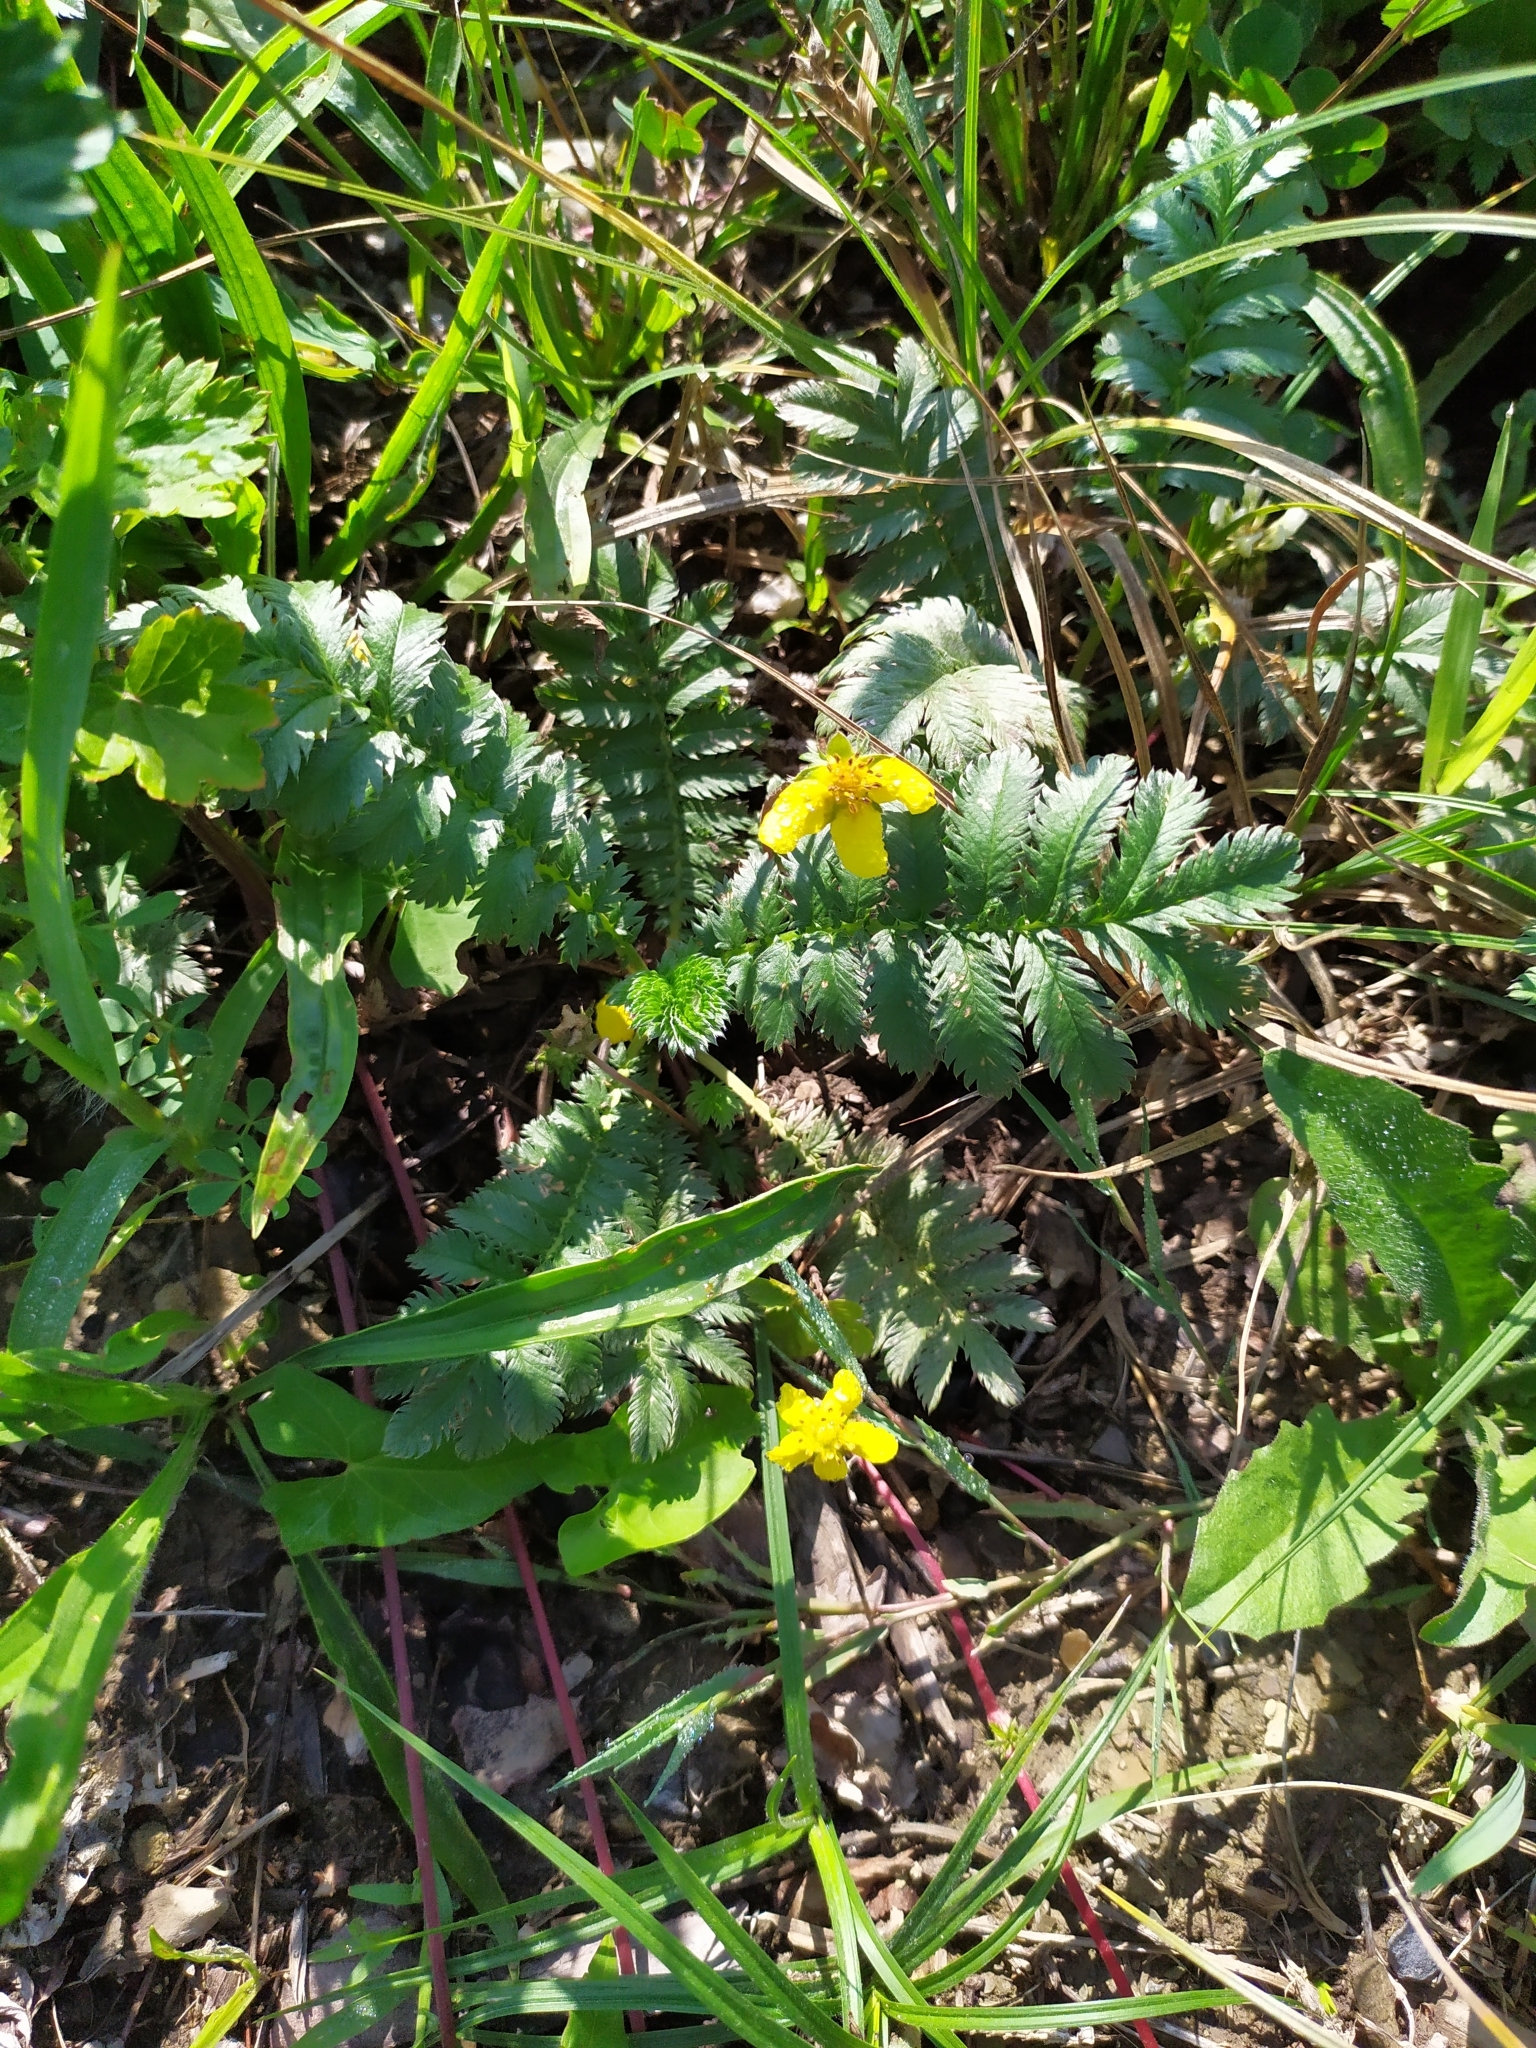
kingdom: Plantae
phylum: Tracheophyta
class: Magnoliopsida
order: Rosales
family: Rosaceae
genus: Argentina
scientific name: Argentina anserina
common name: Common silverweed
